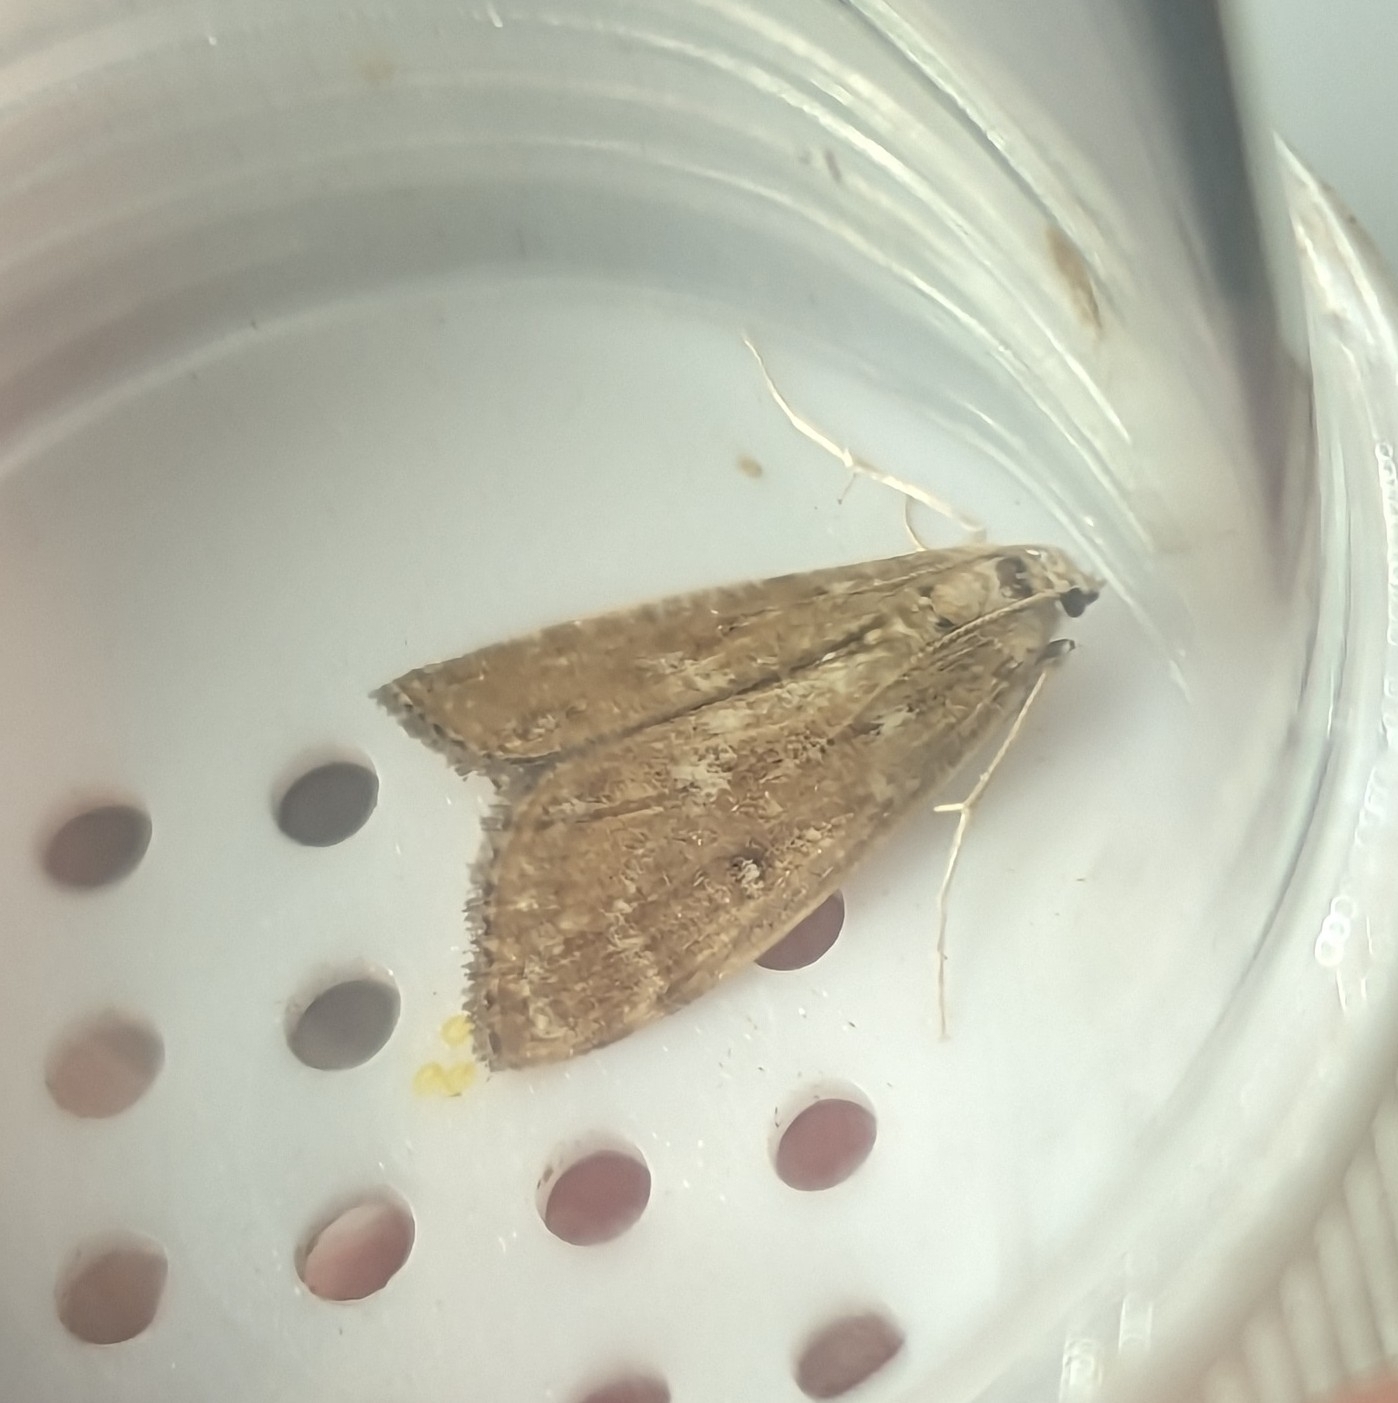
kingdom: Animalia
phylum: Arthropoda
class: Insecta
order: Lepidoptera
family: Crambidae
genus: Parapoynx
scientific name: Parapoynx stratiotata
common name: Ringed china-mark
